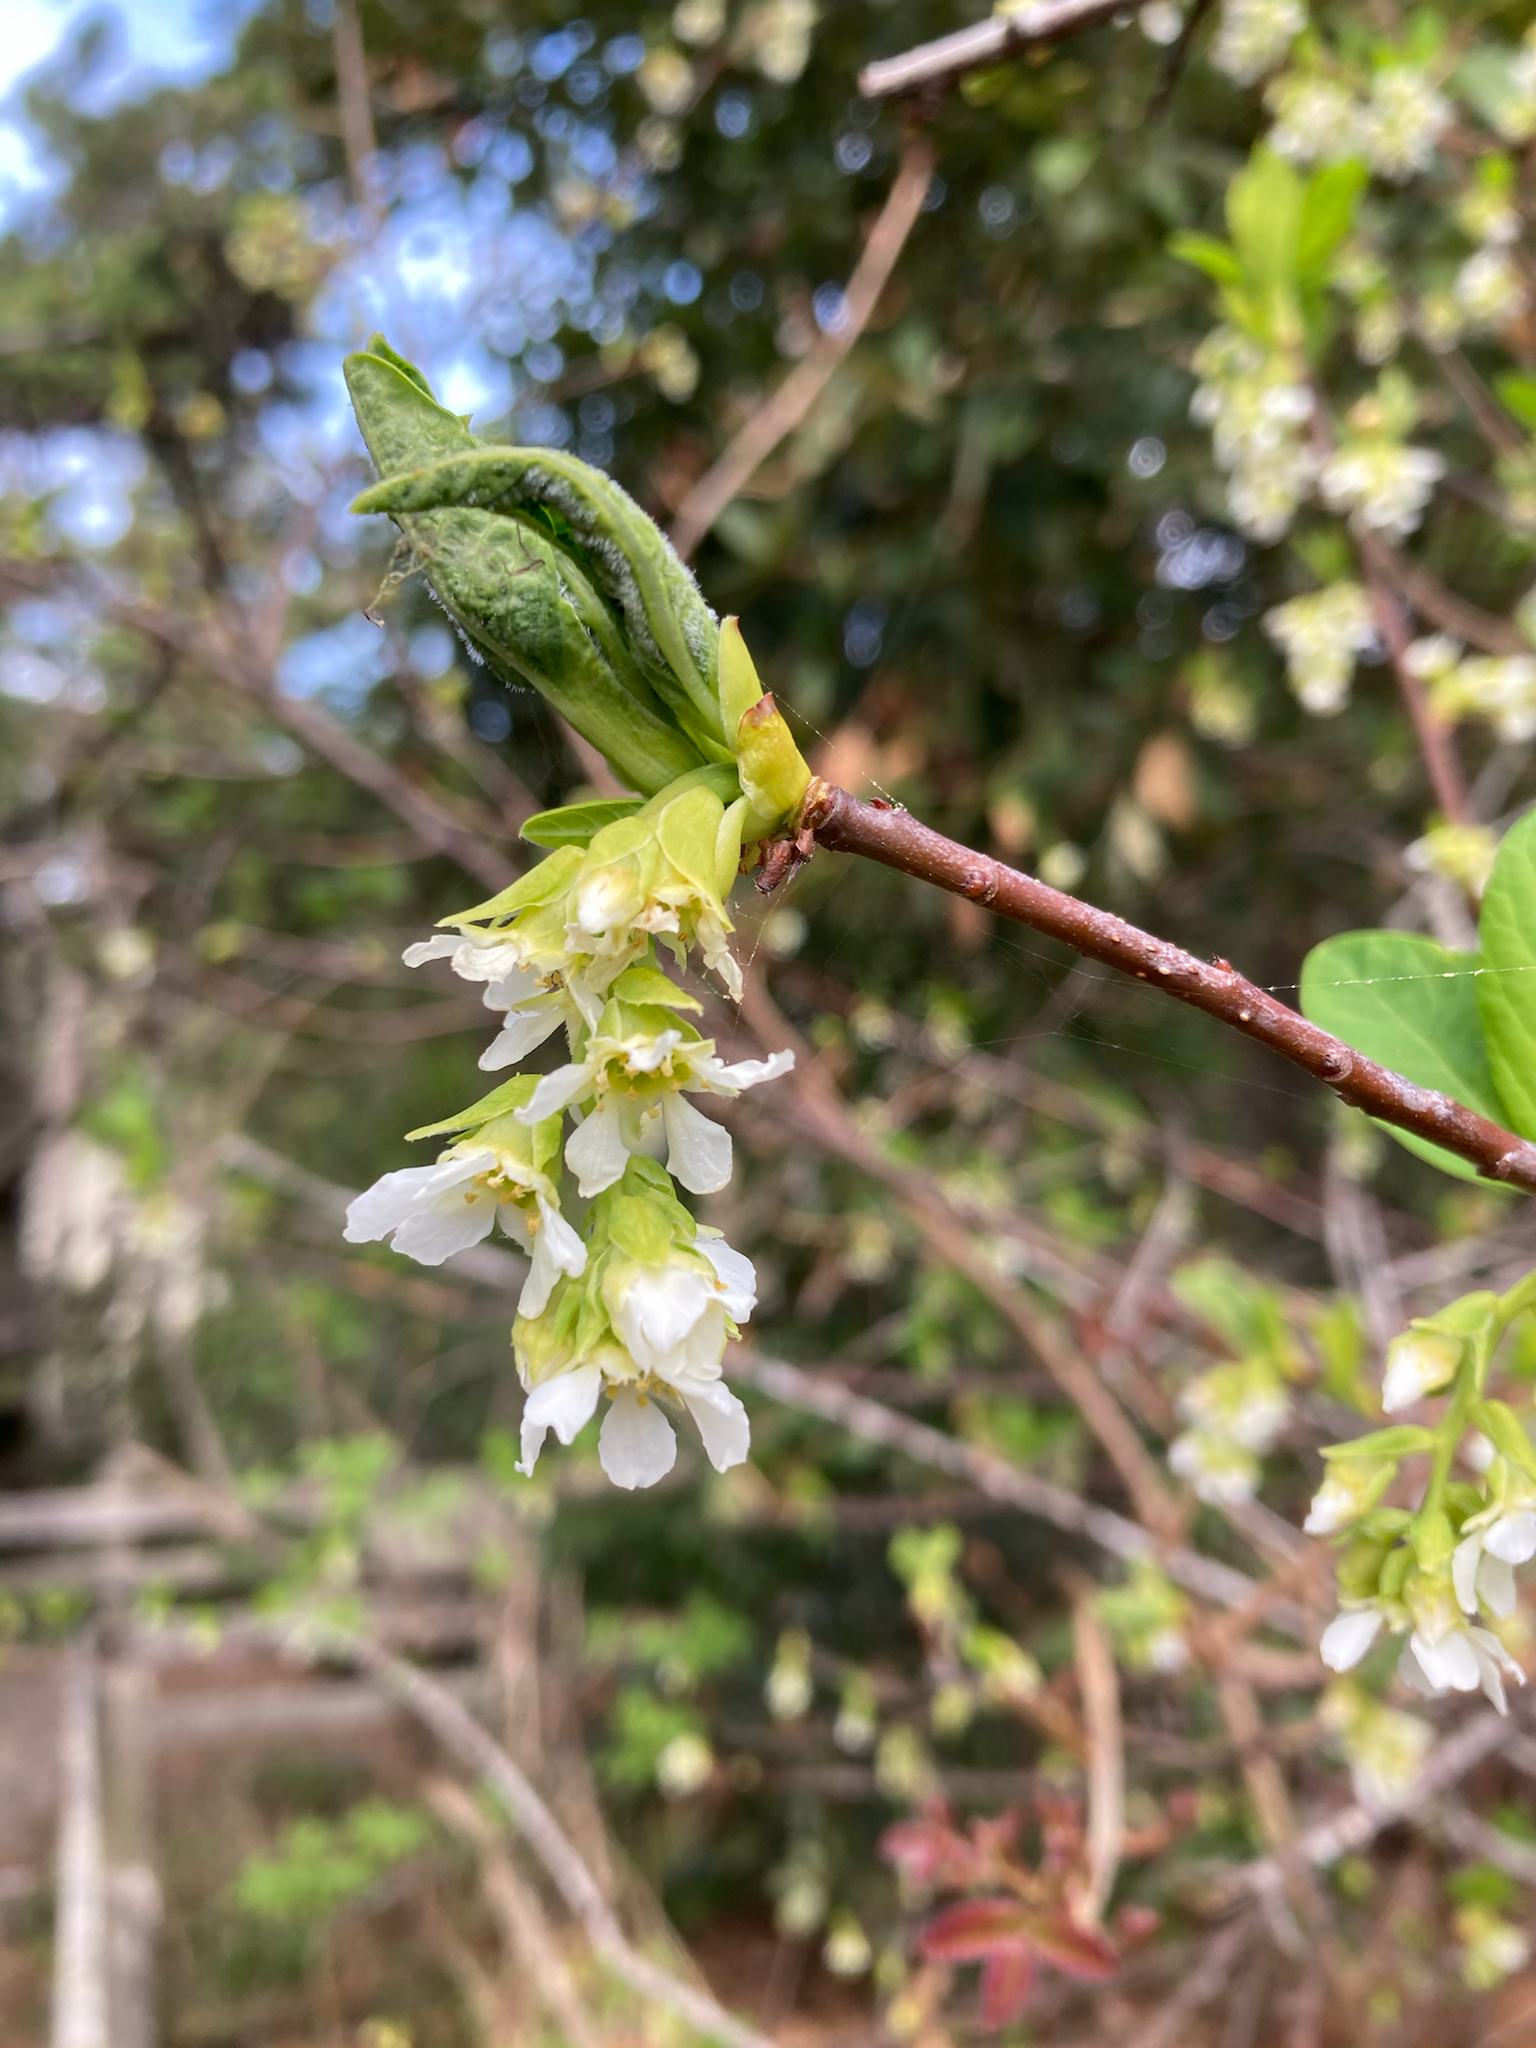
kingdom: Plantae
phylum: Tracheophyta
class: Magnoliopsida
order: Rosales
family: Rosaceae
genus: Oemleria
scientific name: Oemleria cerasiformis
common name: Osoberry
